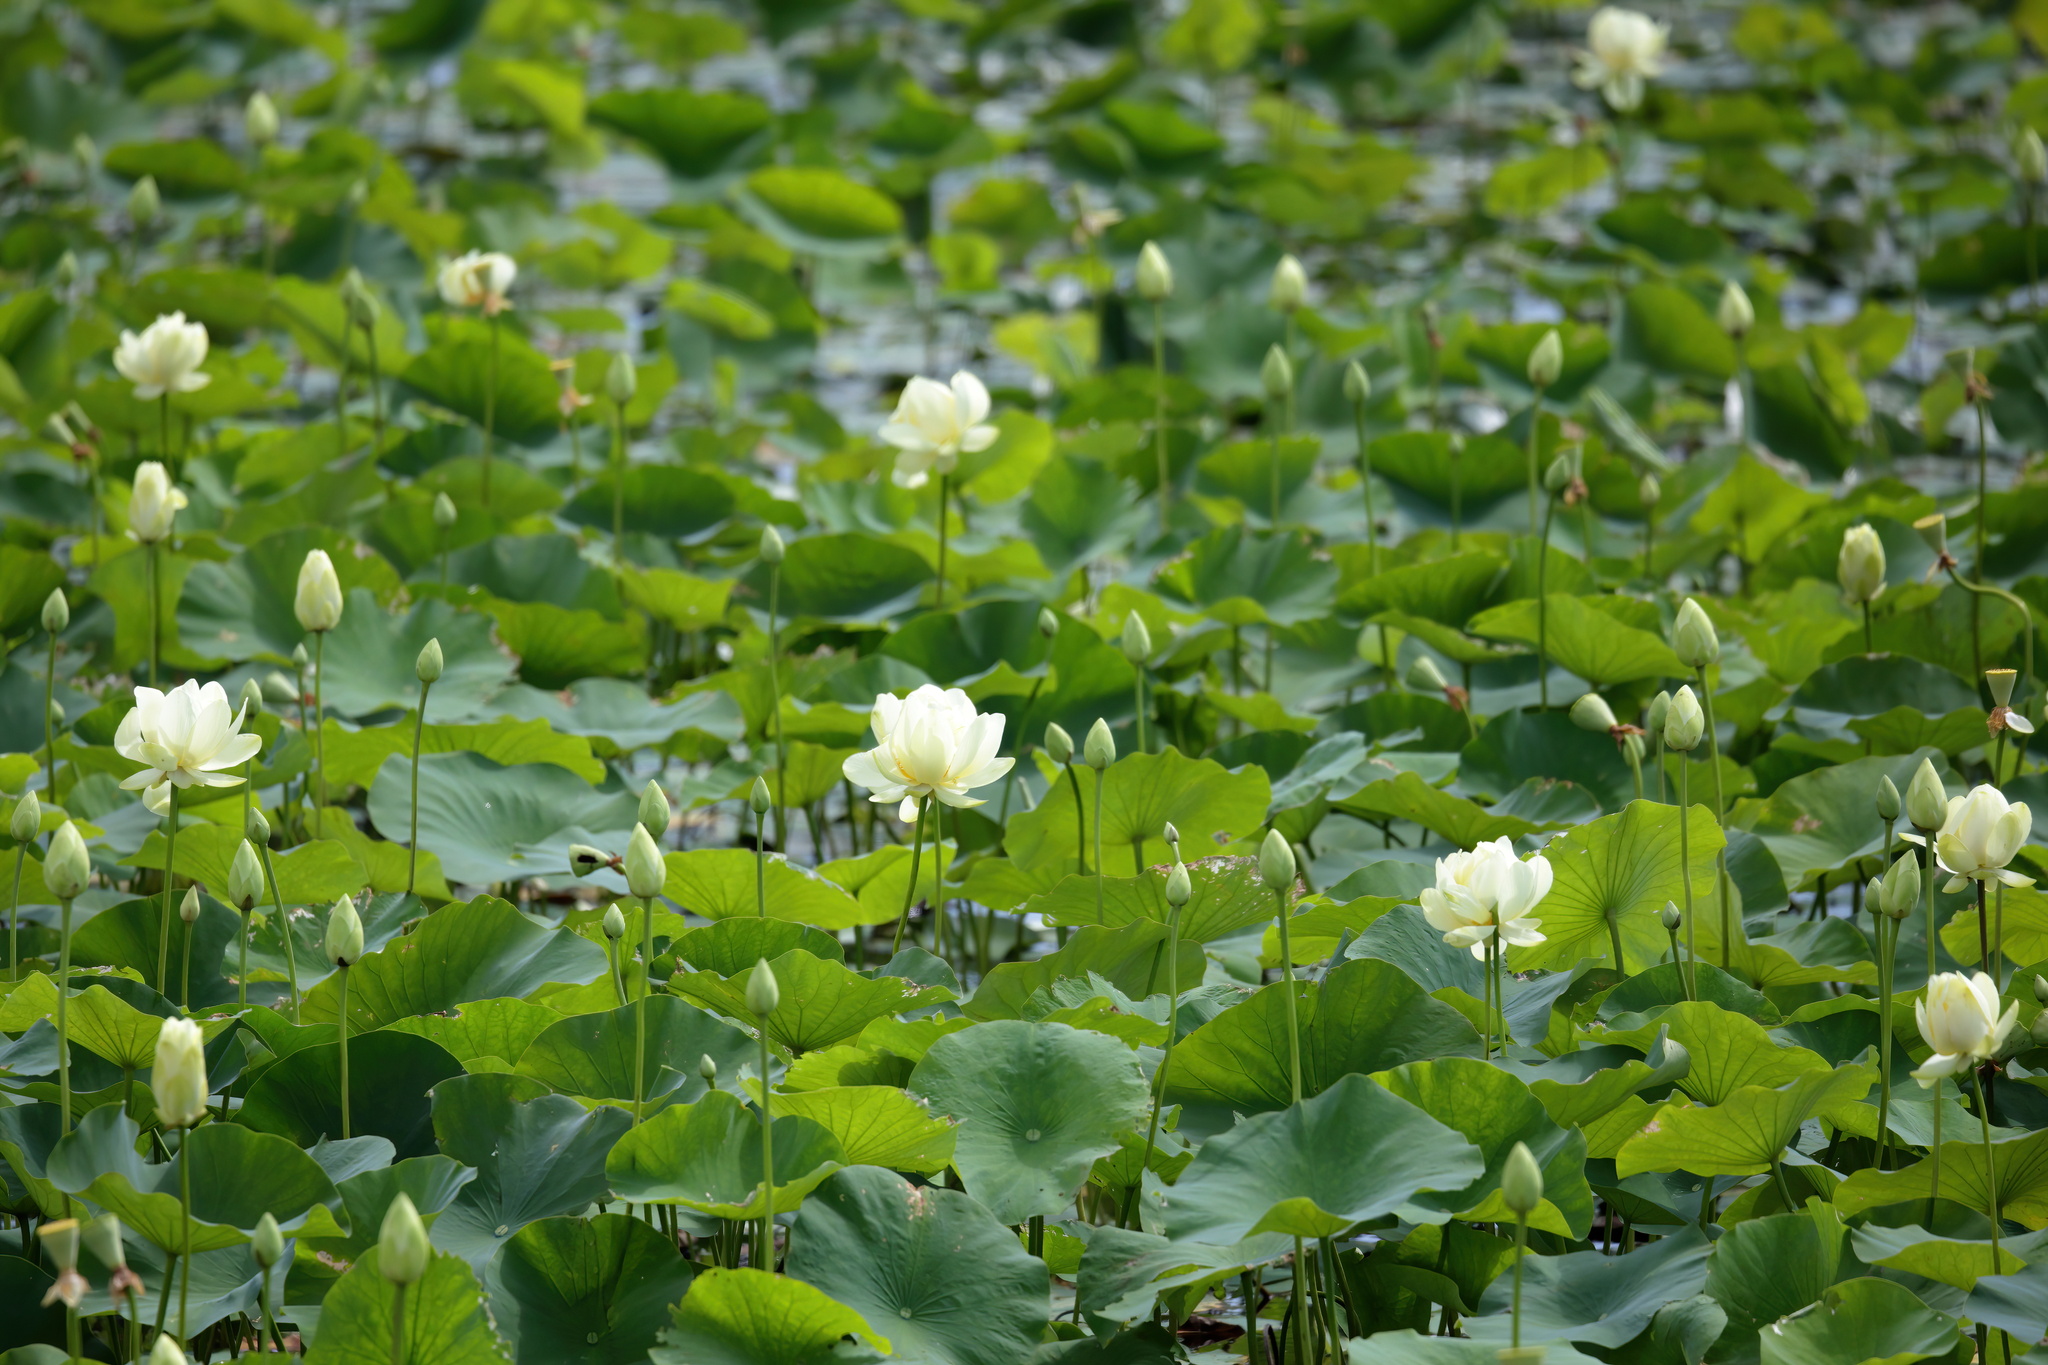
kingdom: Plantae
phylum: Tracheophyta
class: Magnoliopsida
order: Proteales
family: Nelumbonaceae
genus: Nelumbo
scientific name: Nelumbo lutea
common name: American lotus
